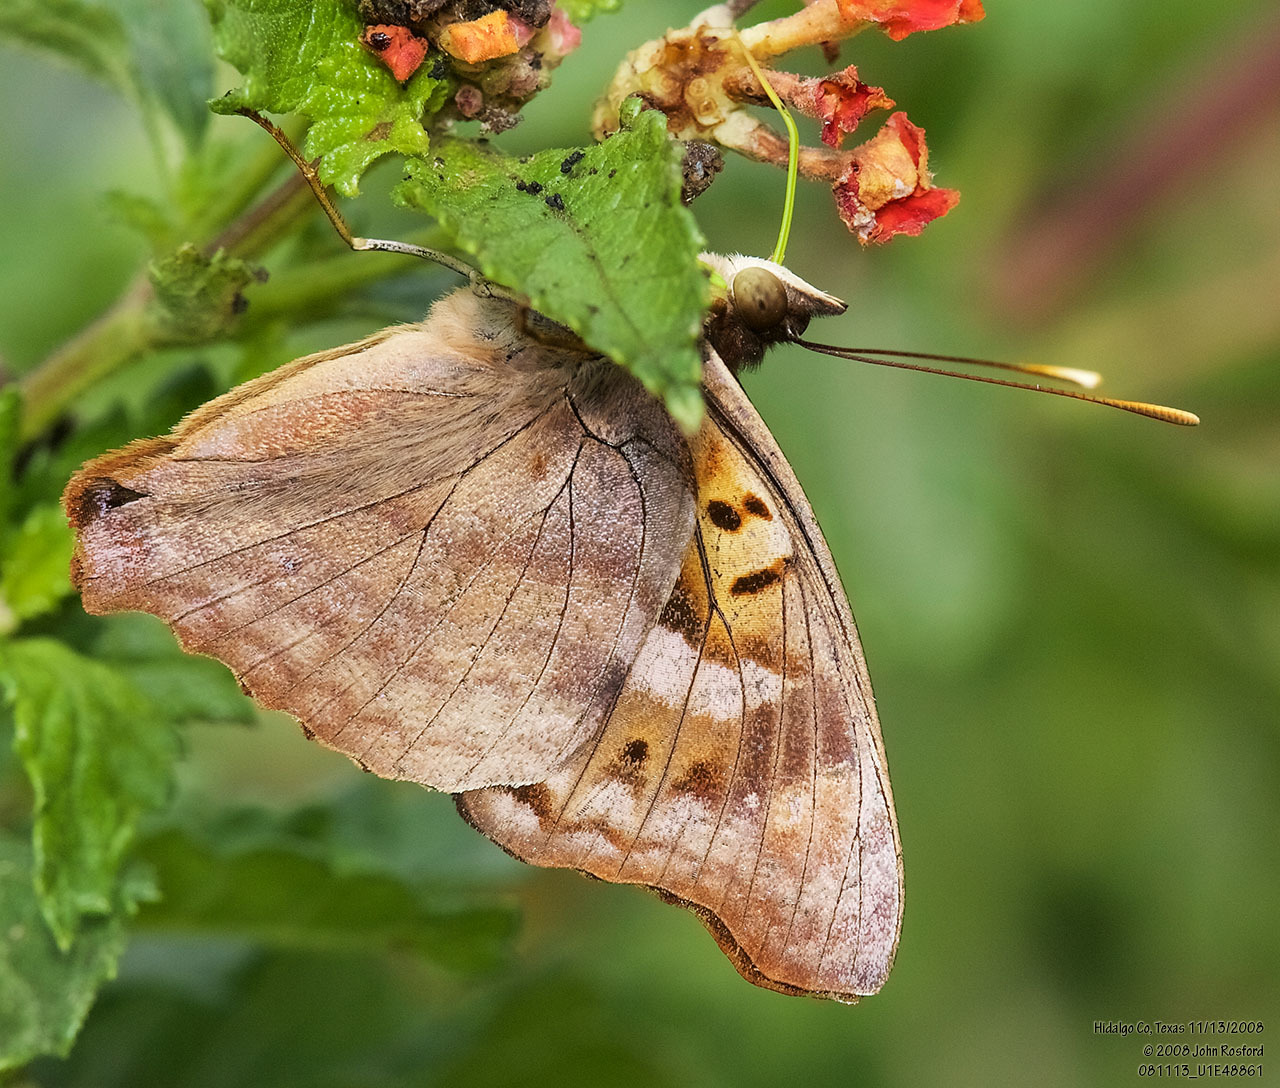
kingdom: Animalia
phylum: Arthropoda
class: Insecta
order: Lepidoptera
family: Nymphalidae
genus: Doxocopa
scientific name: Doxocopa pavon
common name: Pavon emperor
